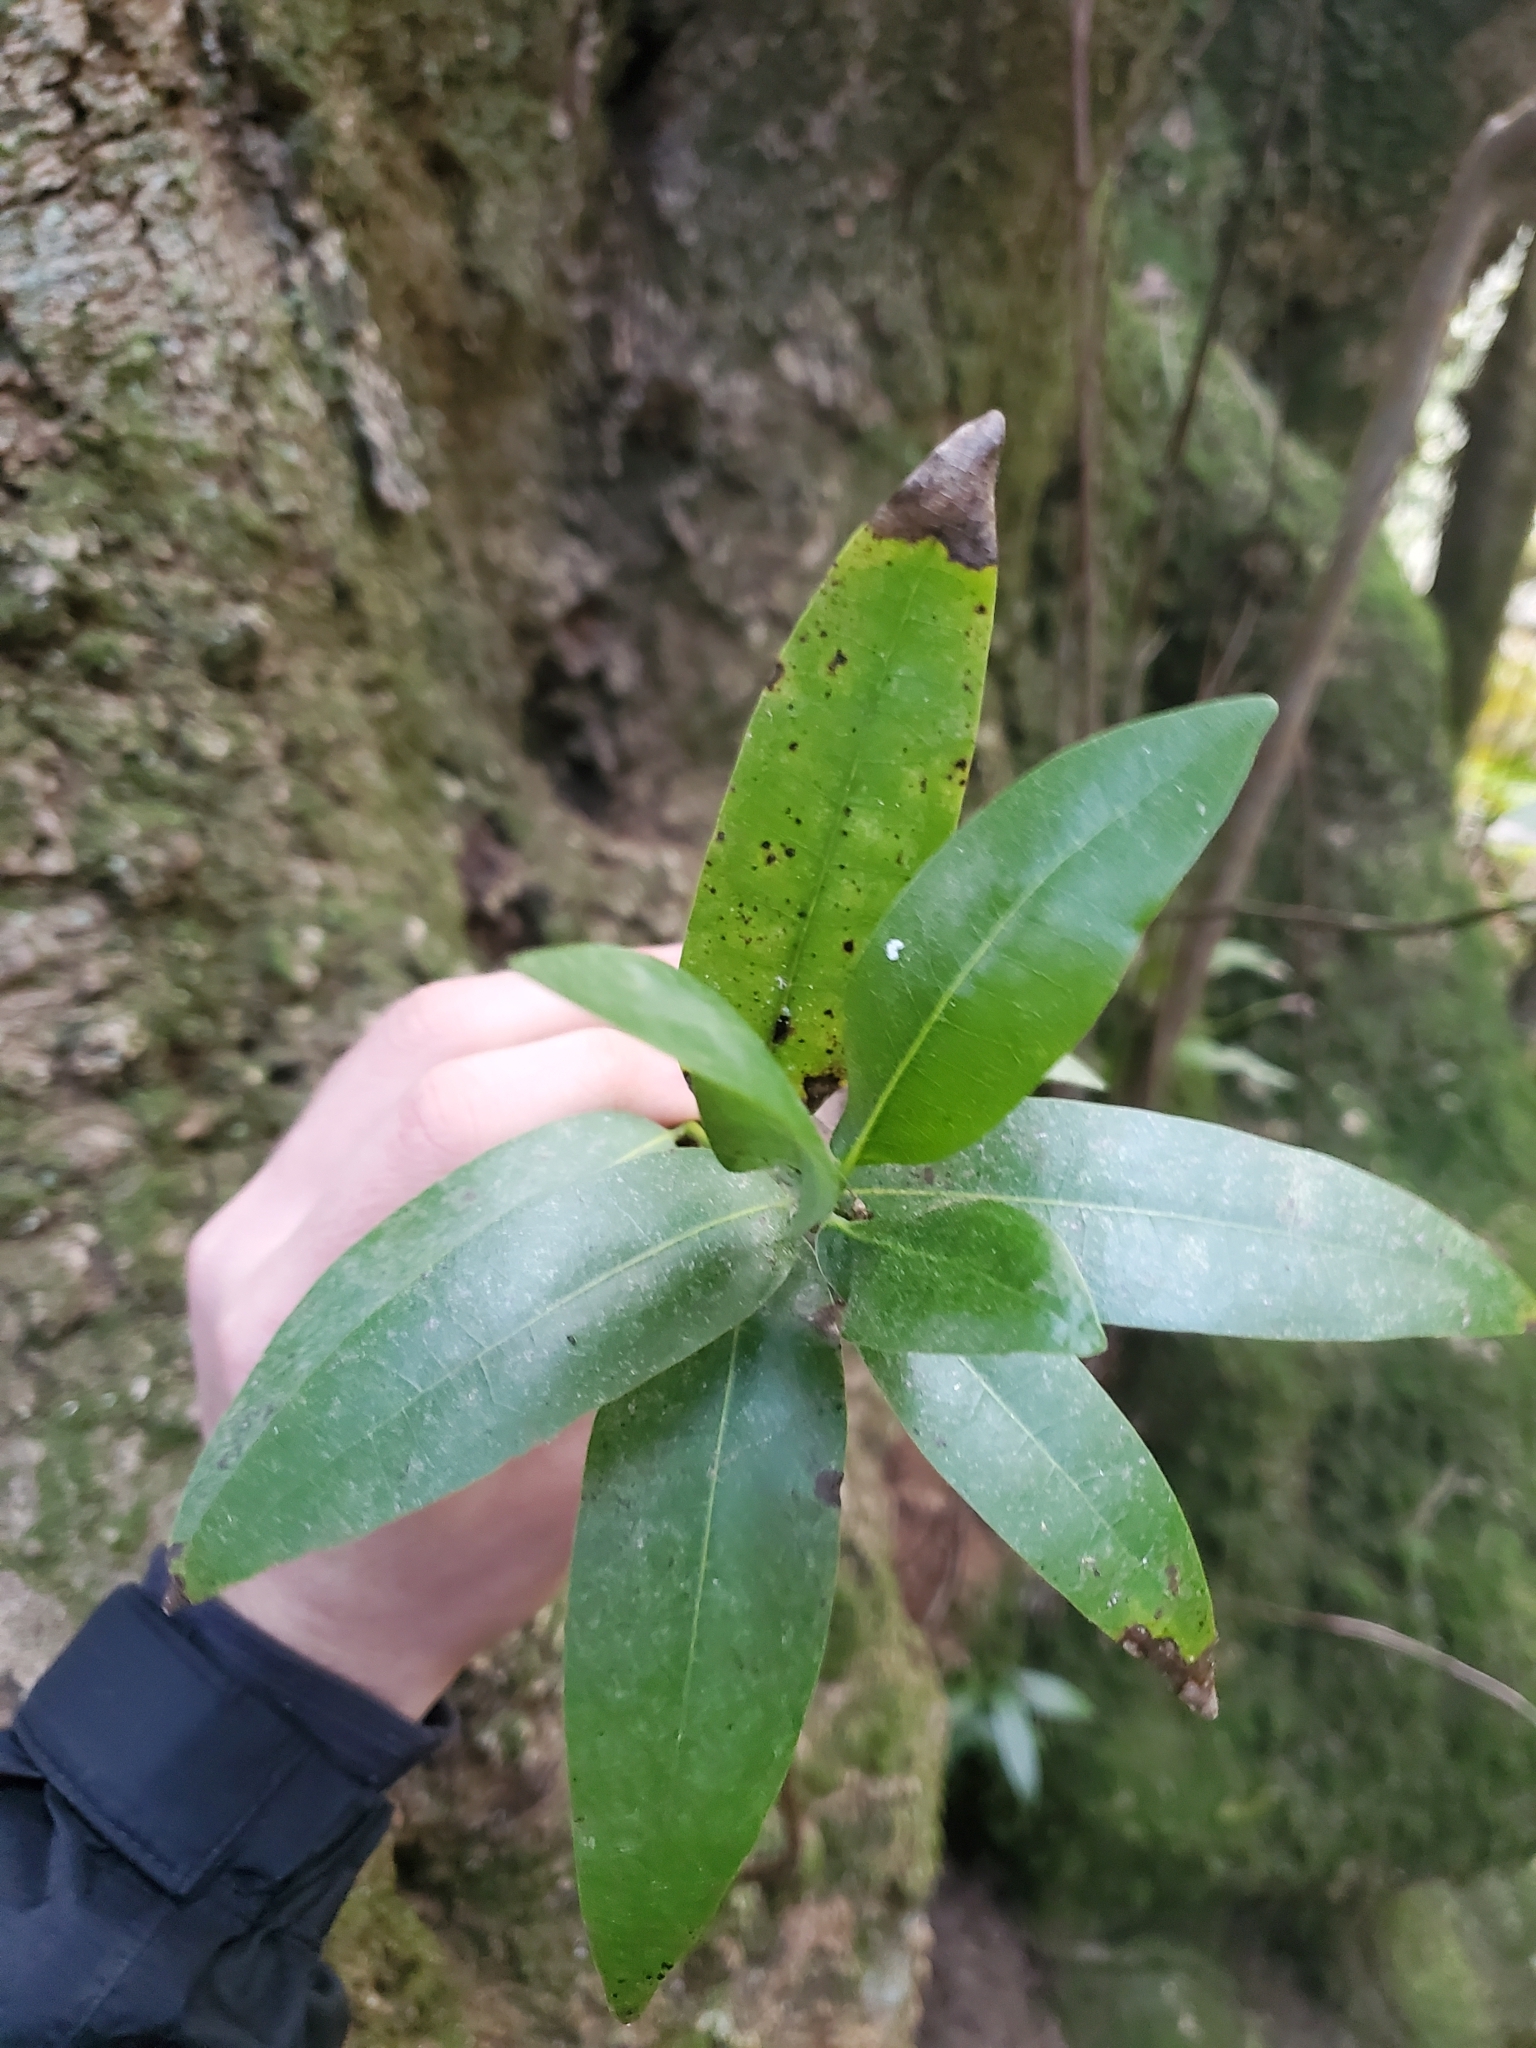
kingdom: Plantae
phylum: Tracheophyta
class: Magnoliopsida
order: Laurales
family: Lauraceae
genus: Umbellularia
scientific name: Umbellularia californica
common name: California bay
